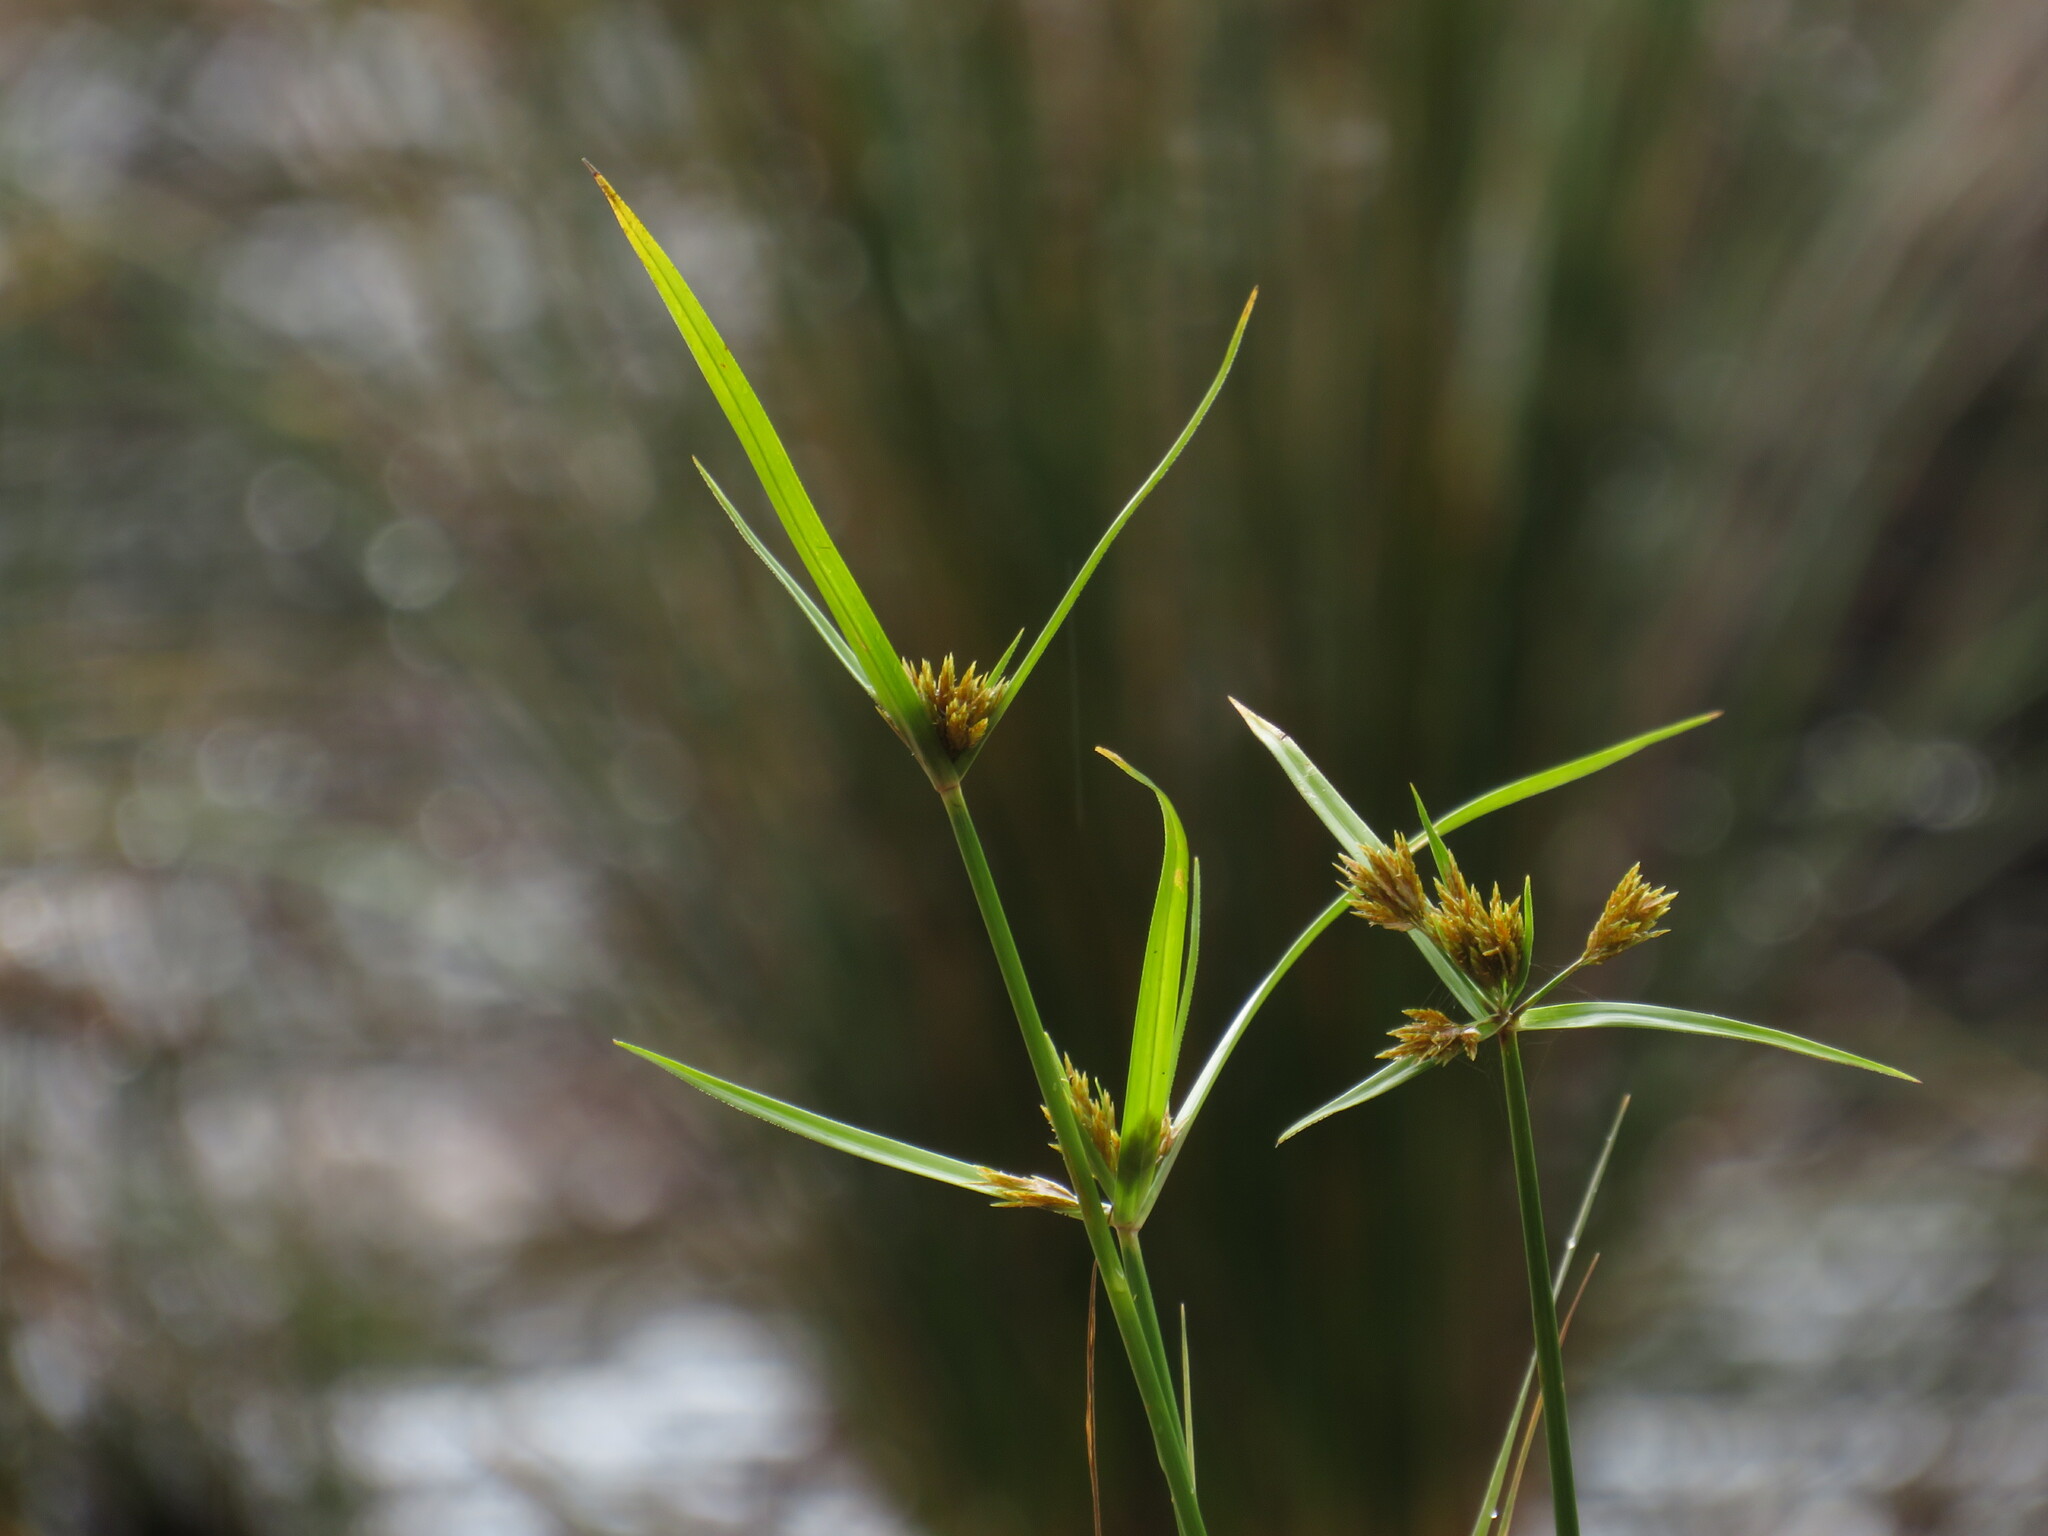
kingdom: Plantae
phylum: Tracheophyta
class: Liliopsida
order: Poales
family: Cyperaceae
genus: Cyperus
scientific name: Cyperus polystachyos
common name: Bunchy flat sedge
